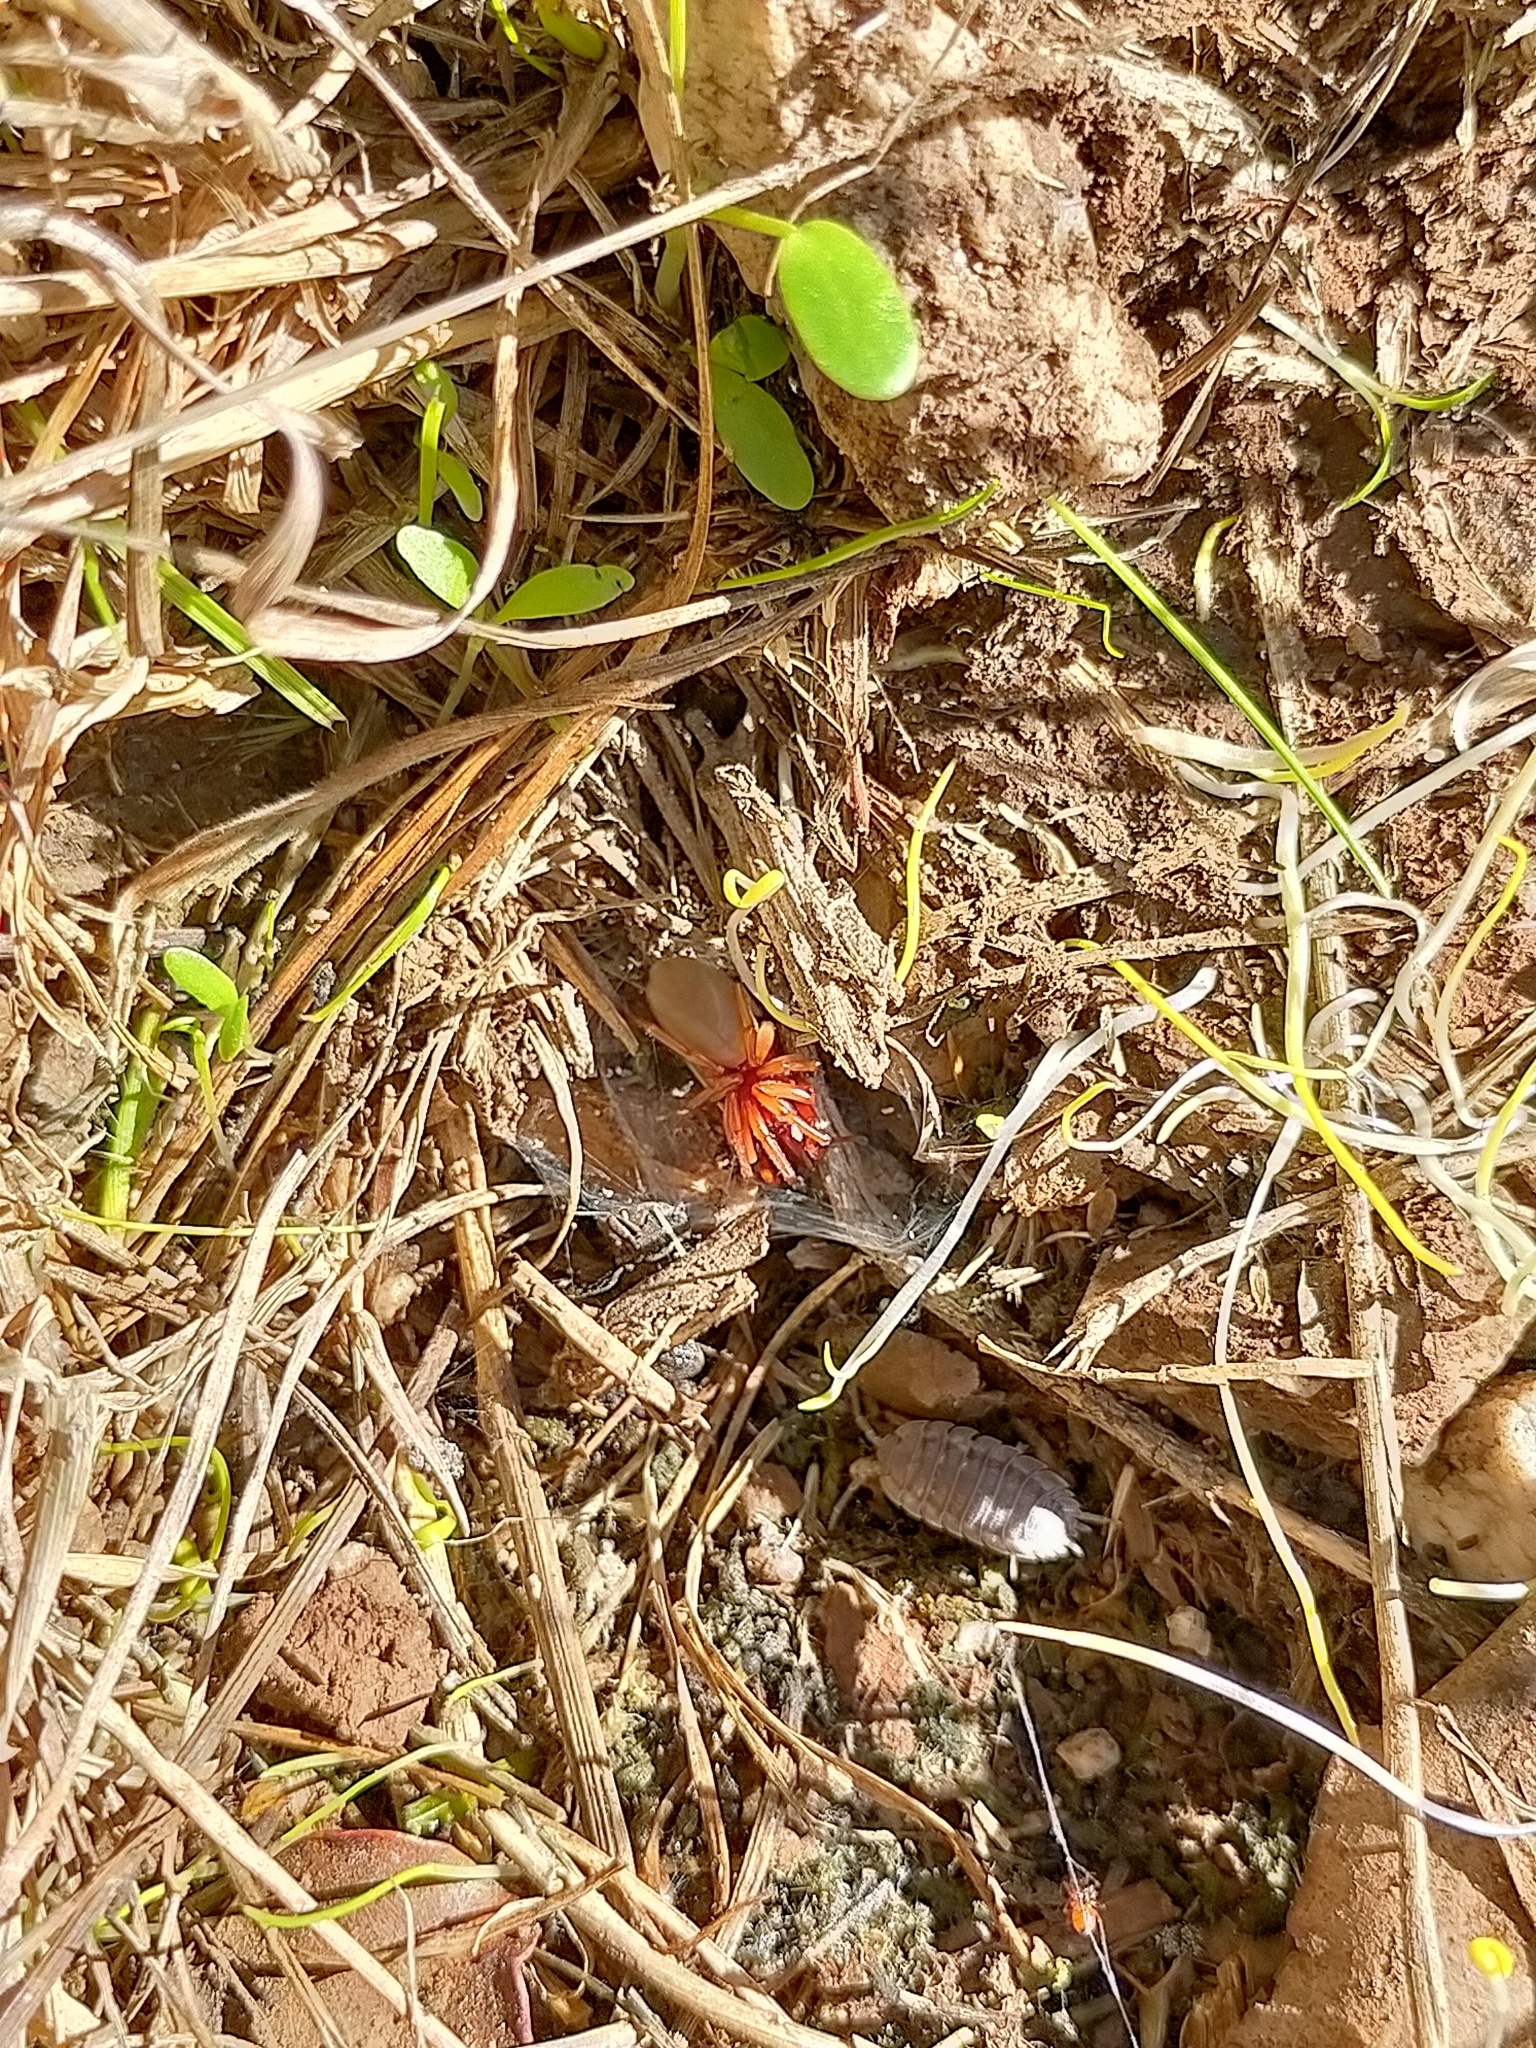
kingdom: Animalia
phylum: Arthropoda
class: Arachnida
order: Araneae
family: Dysderidae
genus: Dysdera
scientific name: Dysdera crocata
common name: Woodlouse spider
